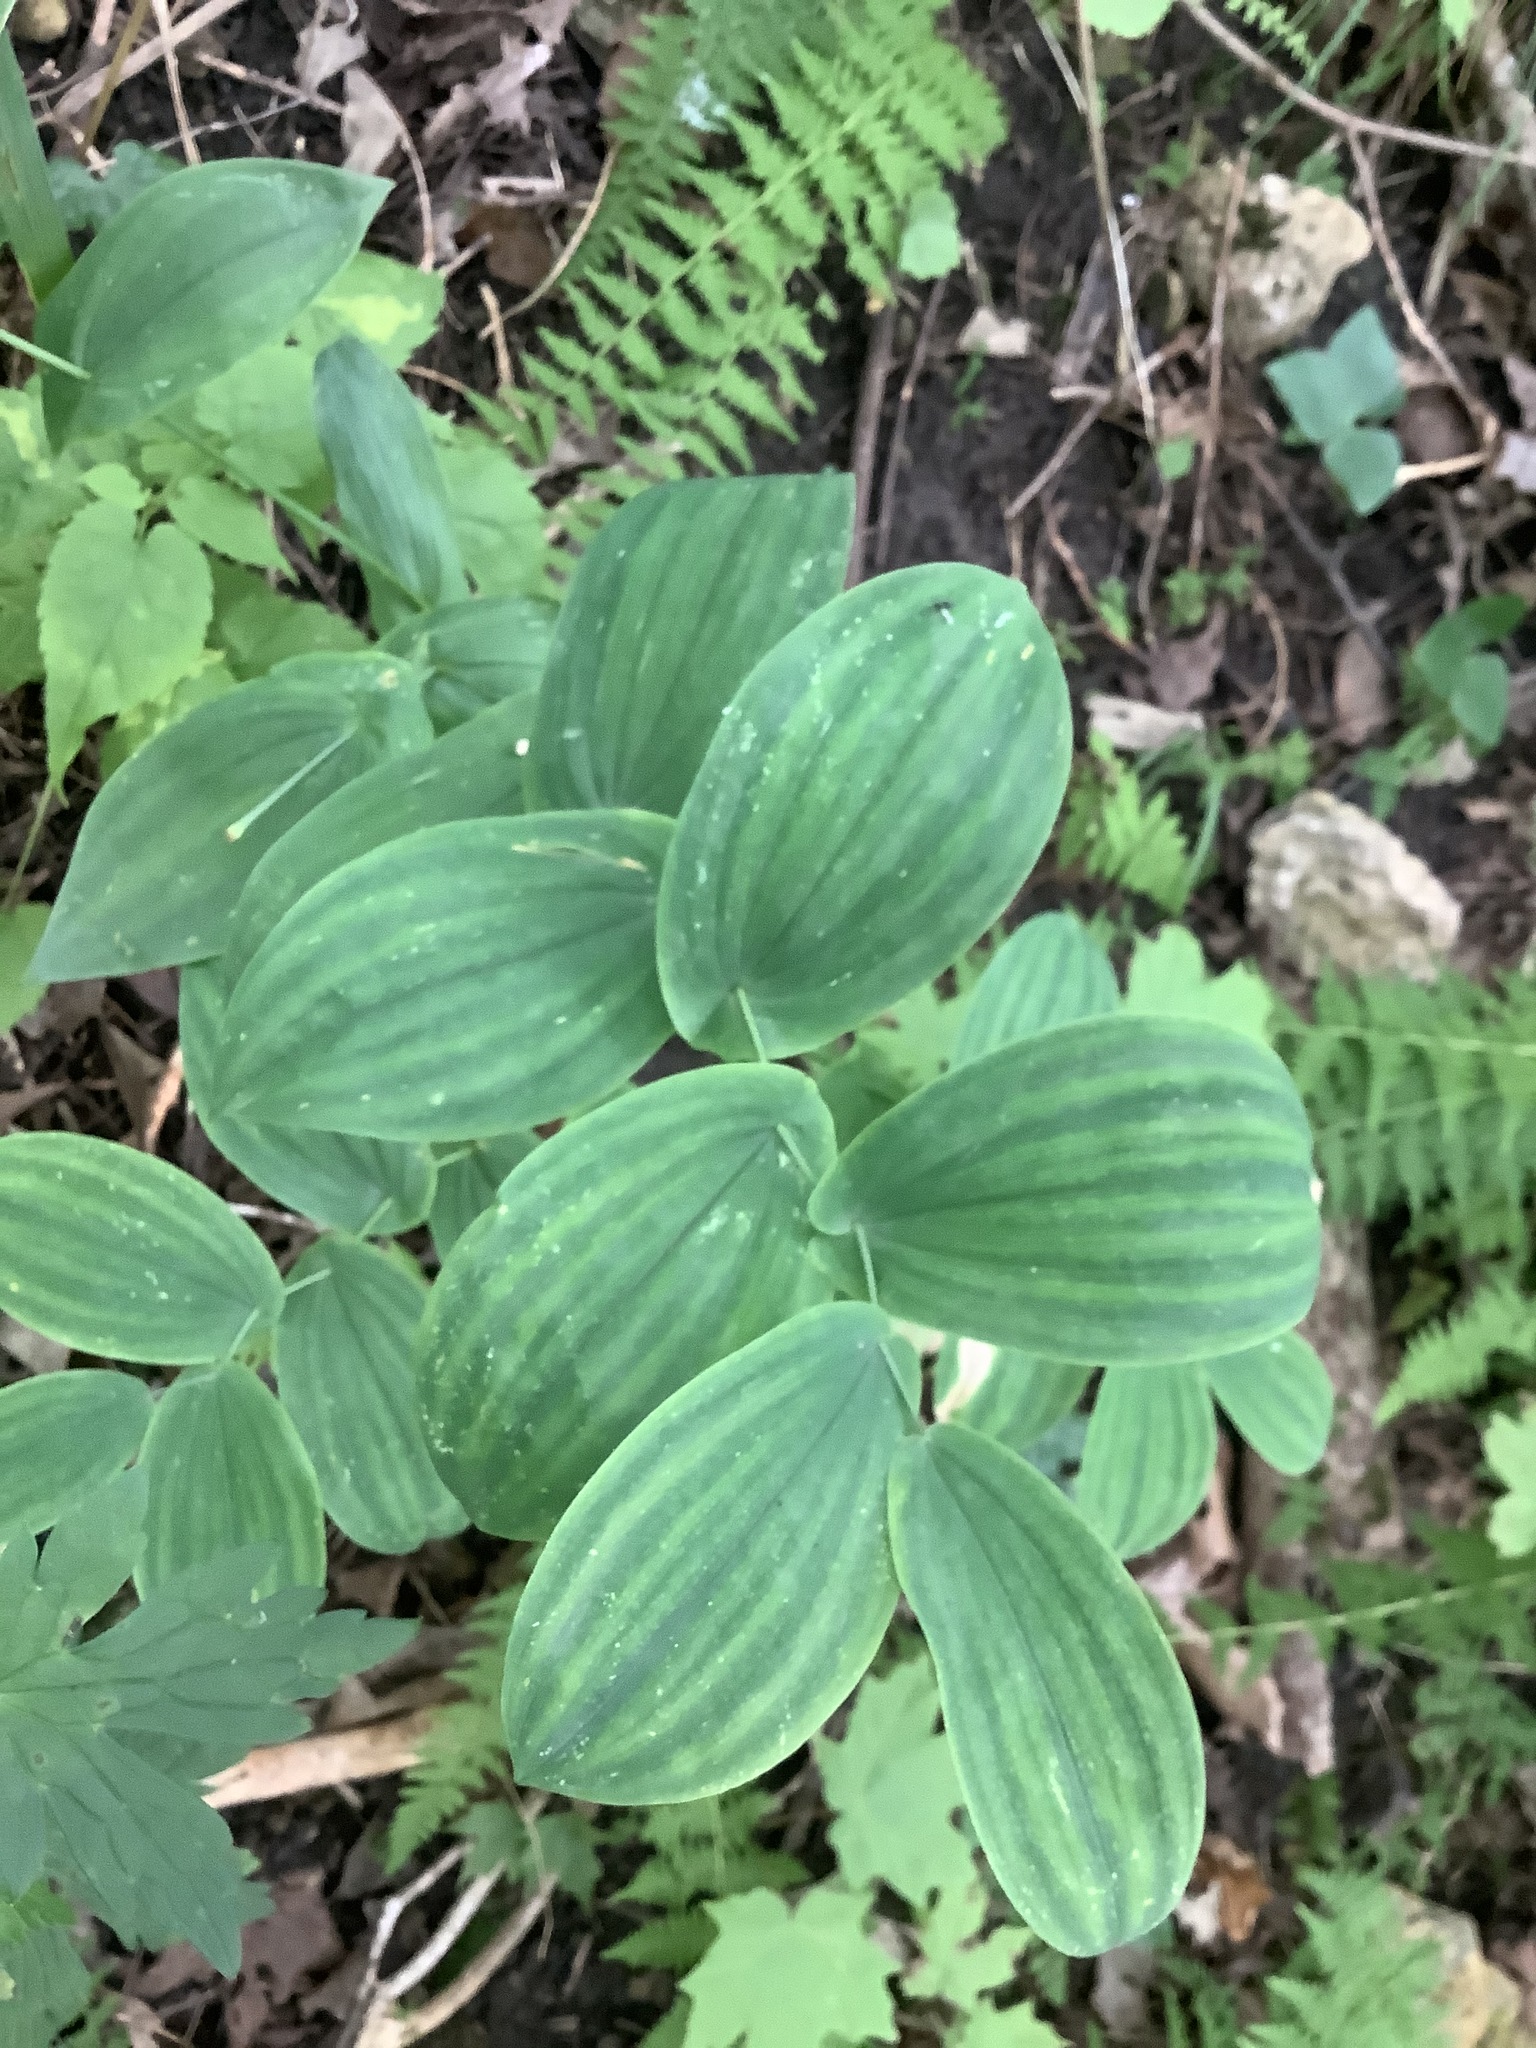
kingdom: Plantae
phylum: Tracheophyta
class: Liliopsida
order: Liliales
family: Colchicaceae
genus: Uvularia
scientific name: Uvularia grandiflora
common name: Bellwort
